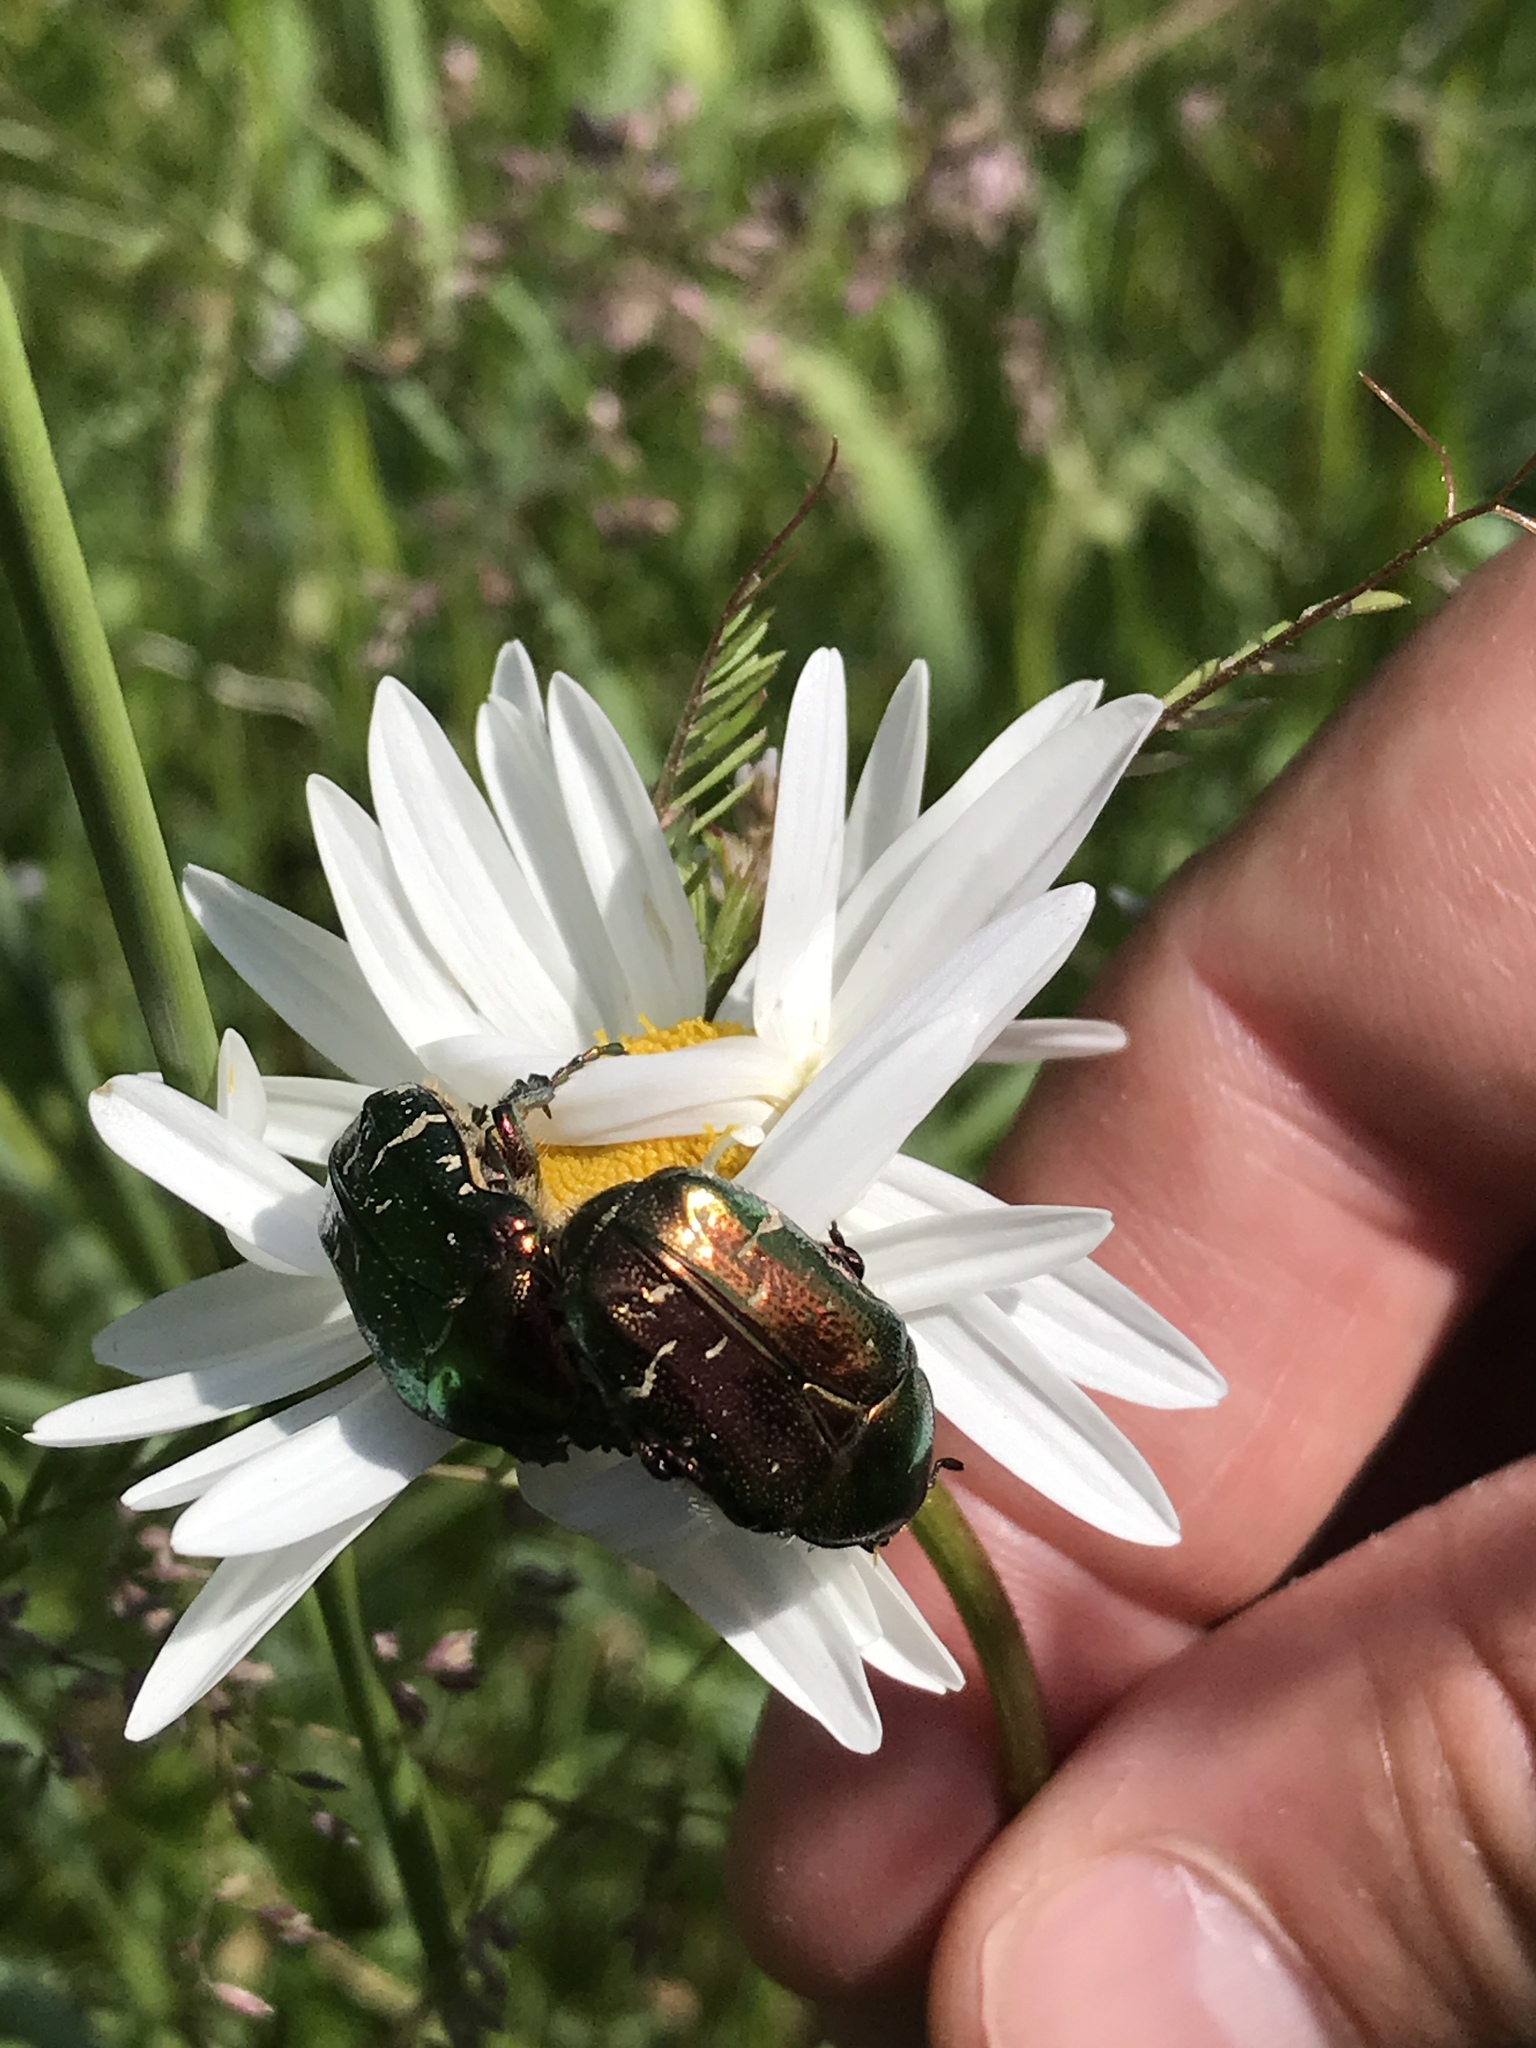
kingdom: Animalia
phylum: Arthropoda
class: Insecta
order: Coleoptera
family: Scarabaeidae
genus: Cetonia
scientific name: Cetonia aurata
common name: Rose chafer
